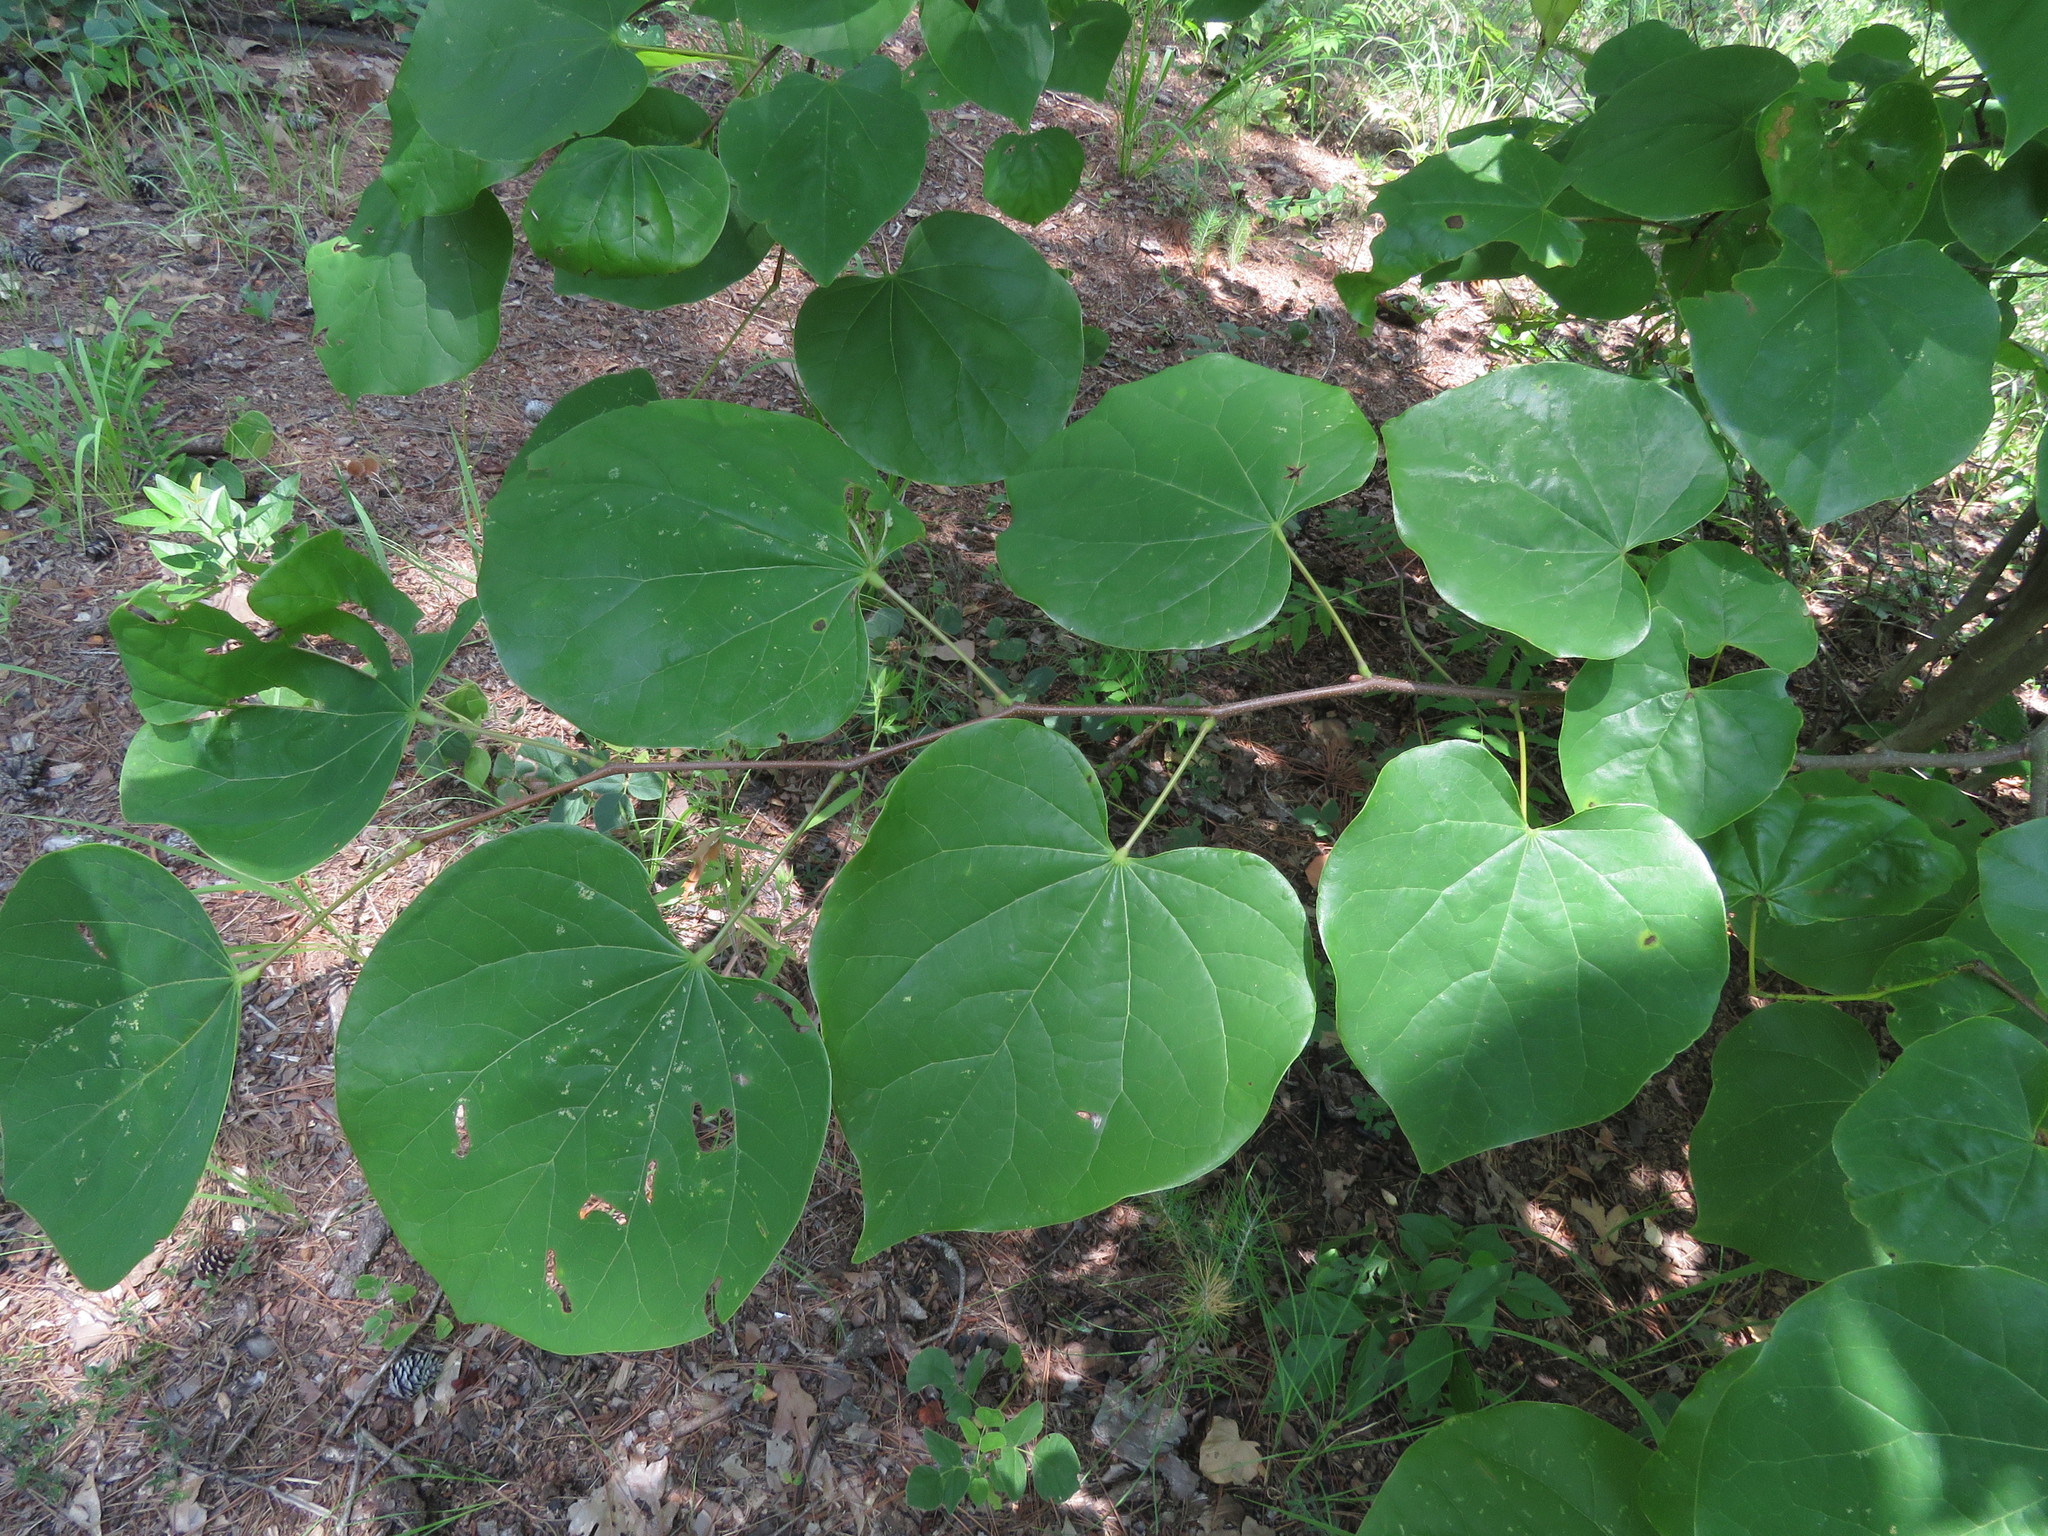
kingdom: Plantae
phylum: Tracheophyta
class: Magnoliopsida
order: Fabales
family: Fabaceae
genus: Cercis
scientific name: Cercis canadensis
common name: Eastern redbud
